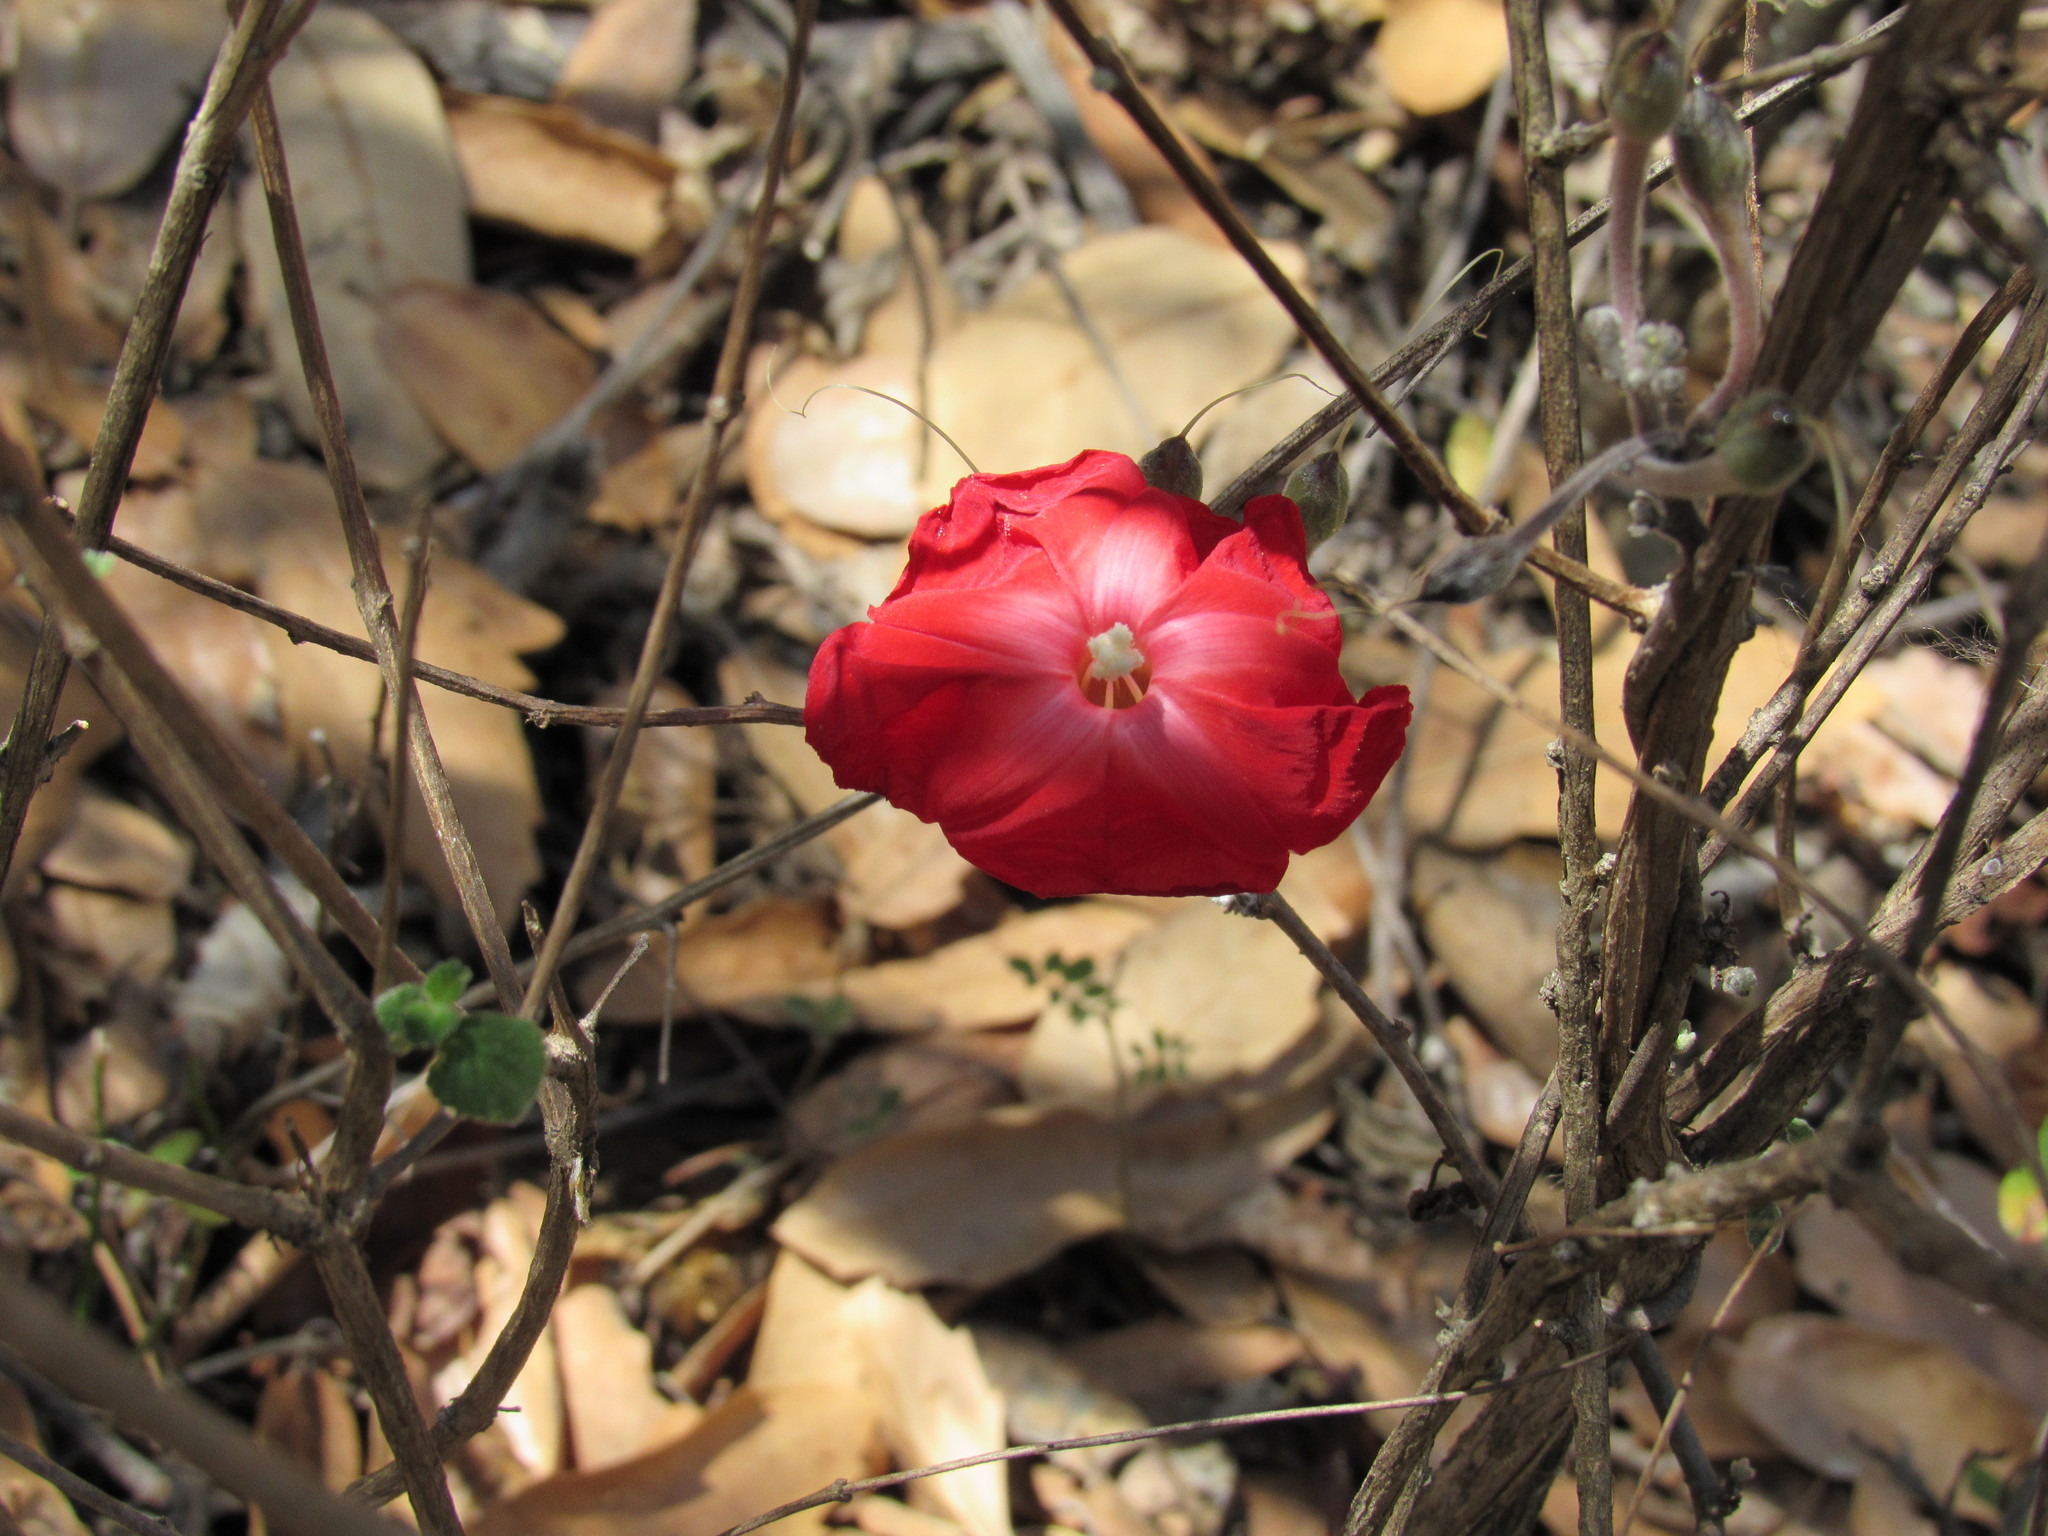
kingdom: Plantae
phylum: Tracheophyta
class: Magnoliopsida
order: Solanales
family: Convolvulaceae
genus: Ipomoea
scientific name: Ipomoea conzattii
